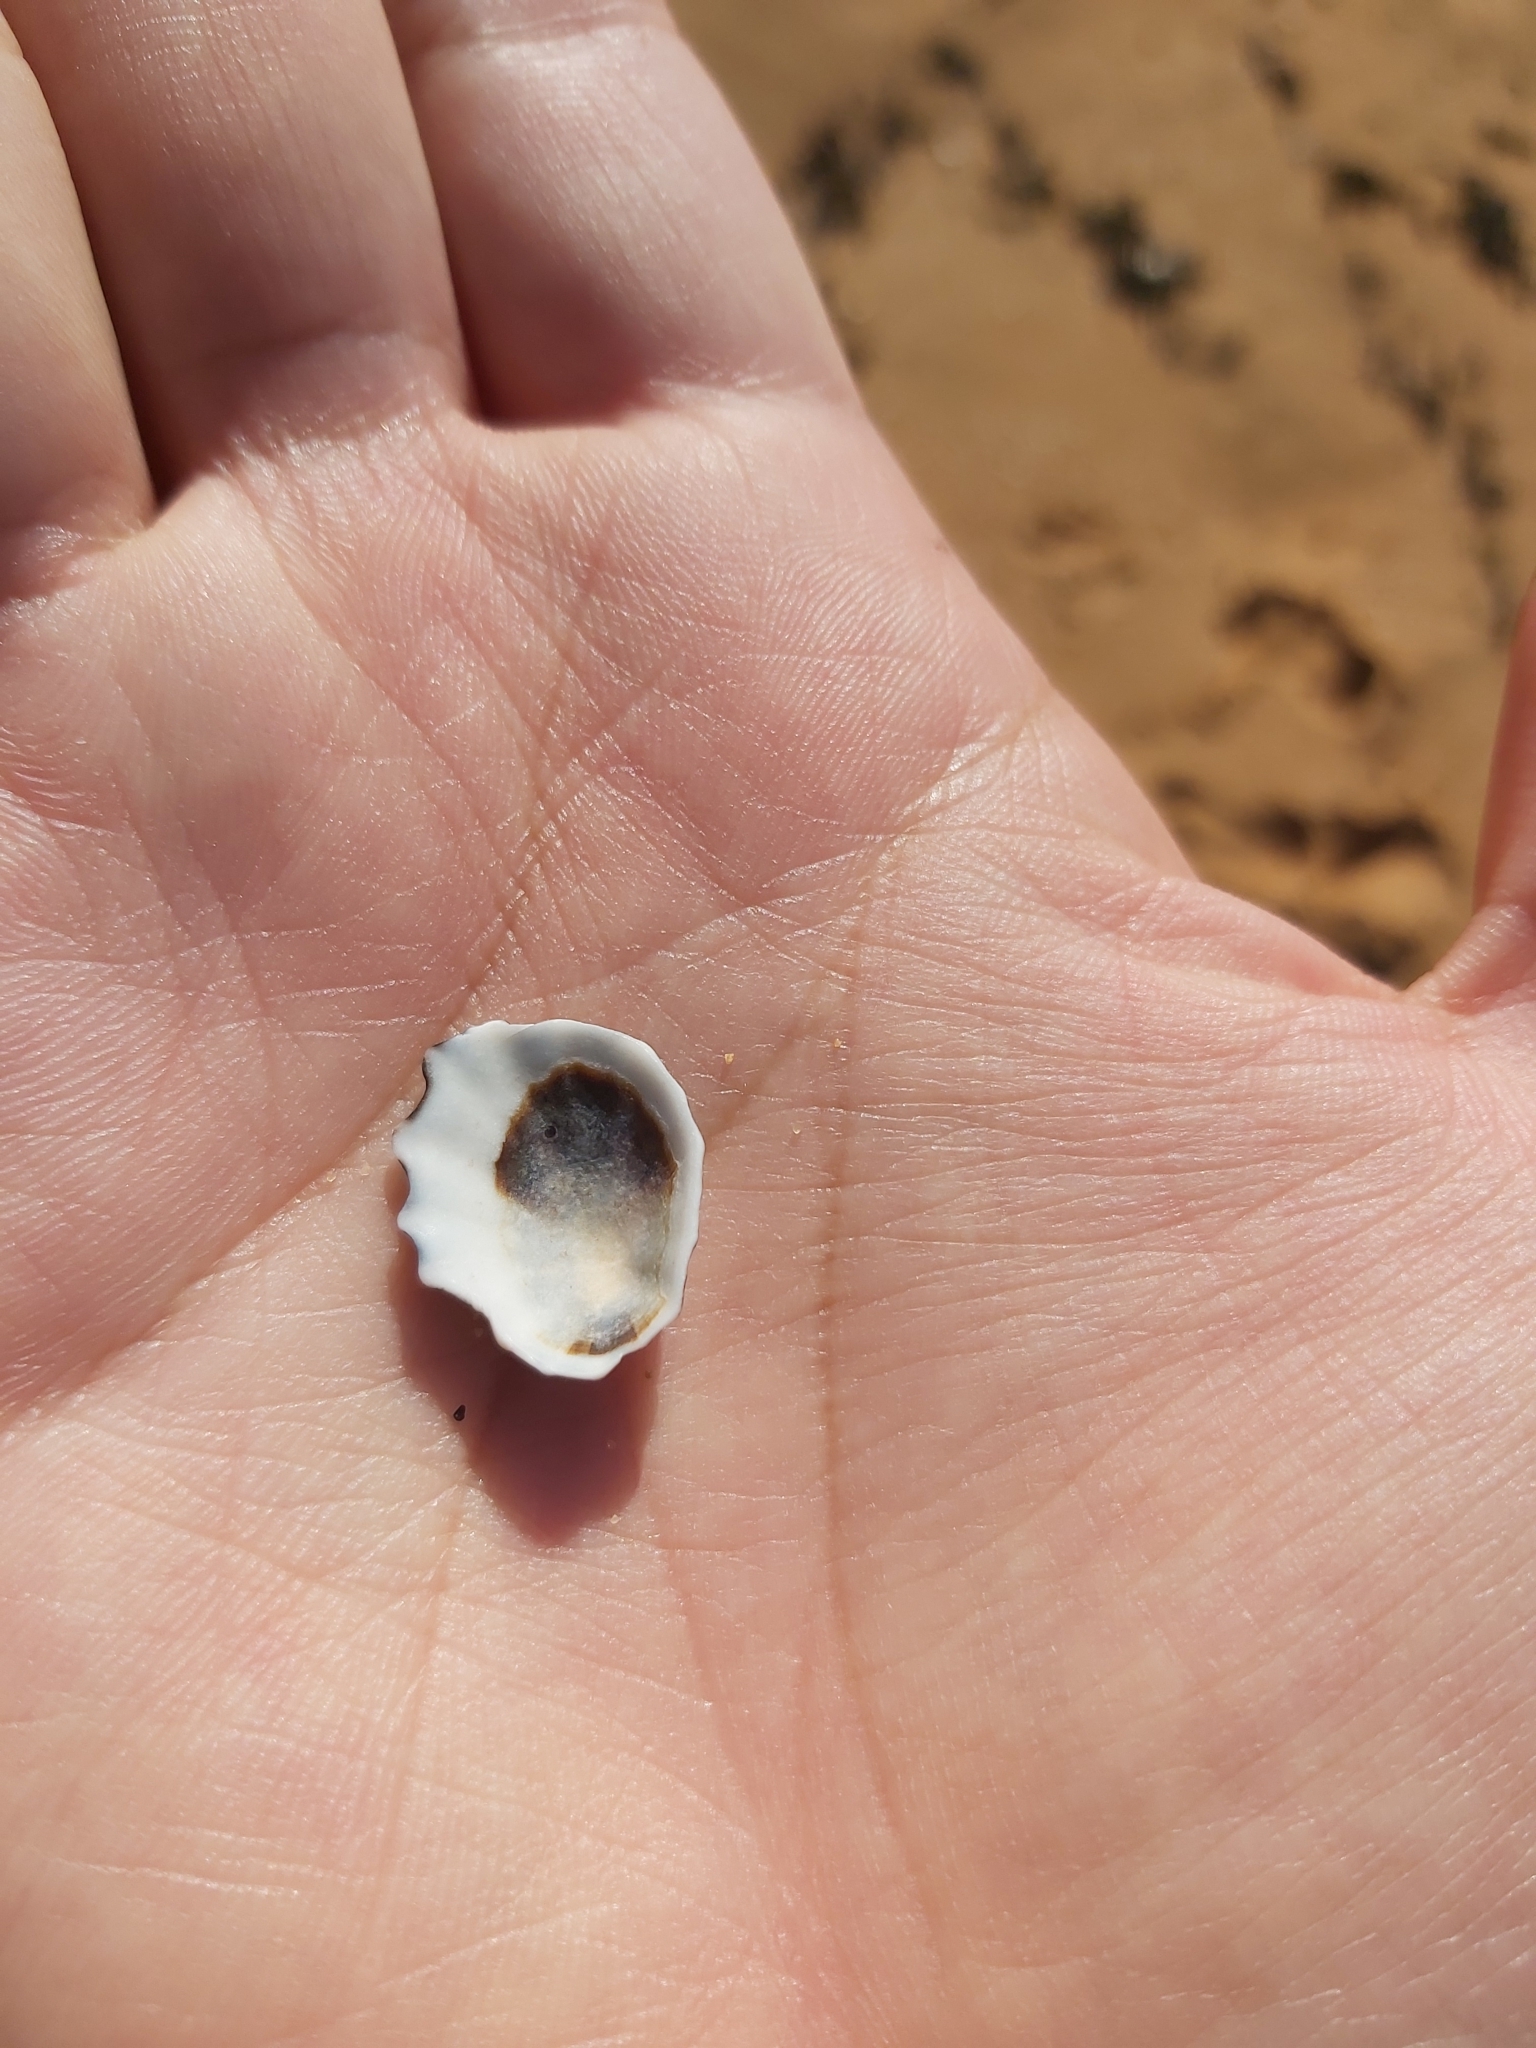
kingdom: Animalia
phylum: Mollusca
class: Gastropoda
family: Lottiidae
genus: Patelloida
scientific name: Patelloida alticostata
